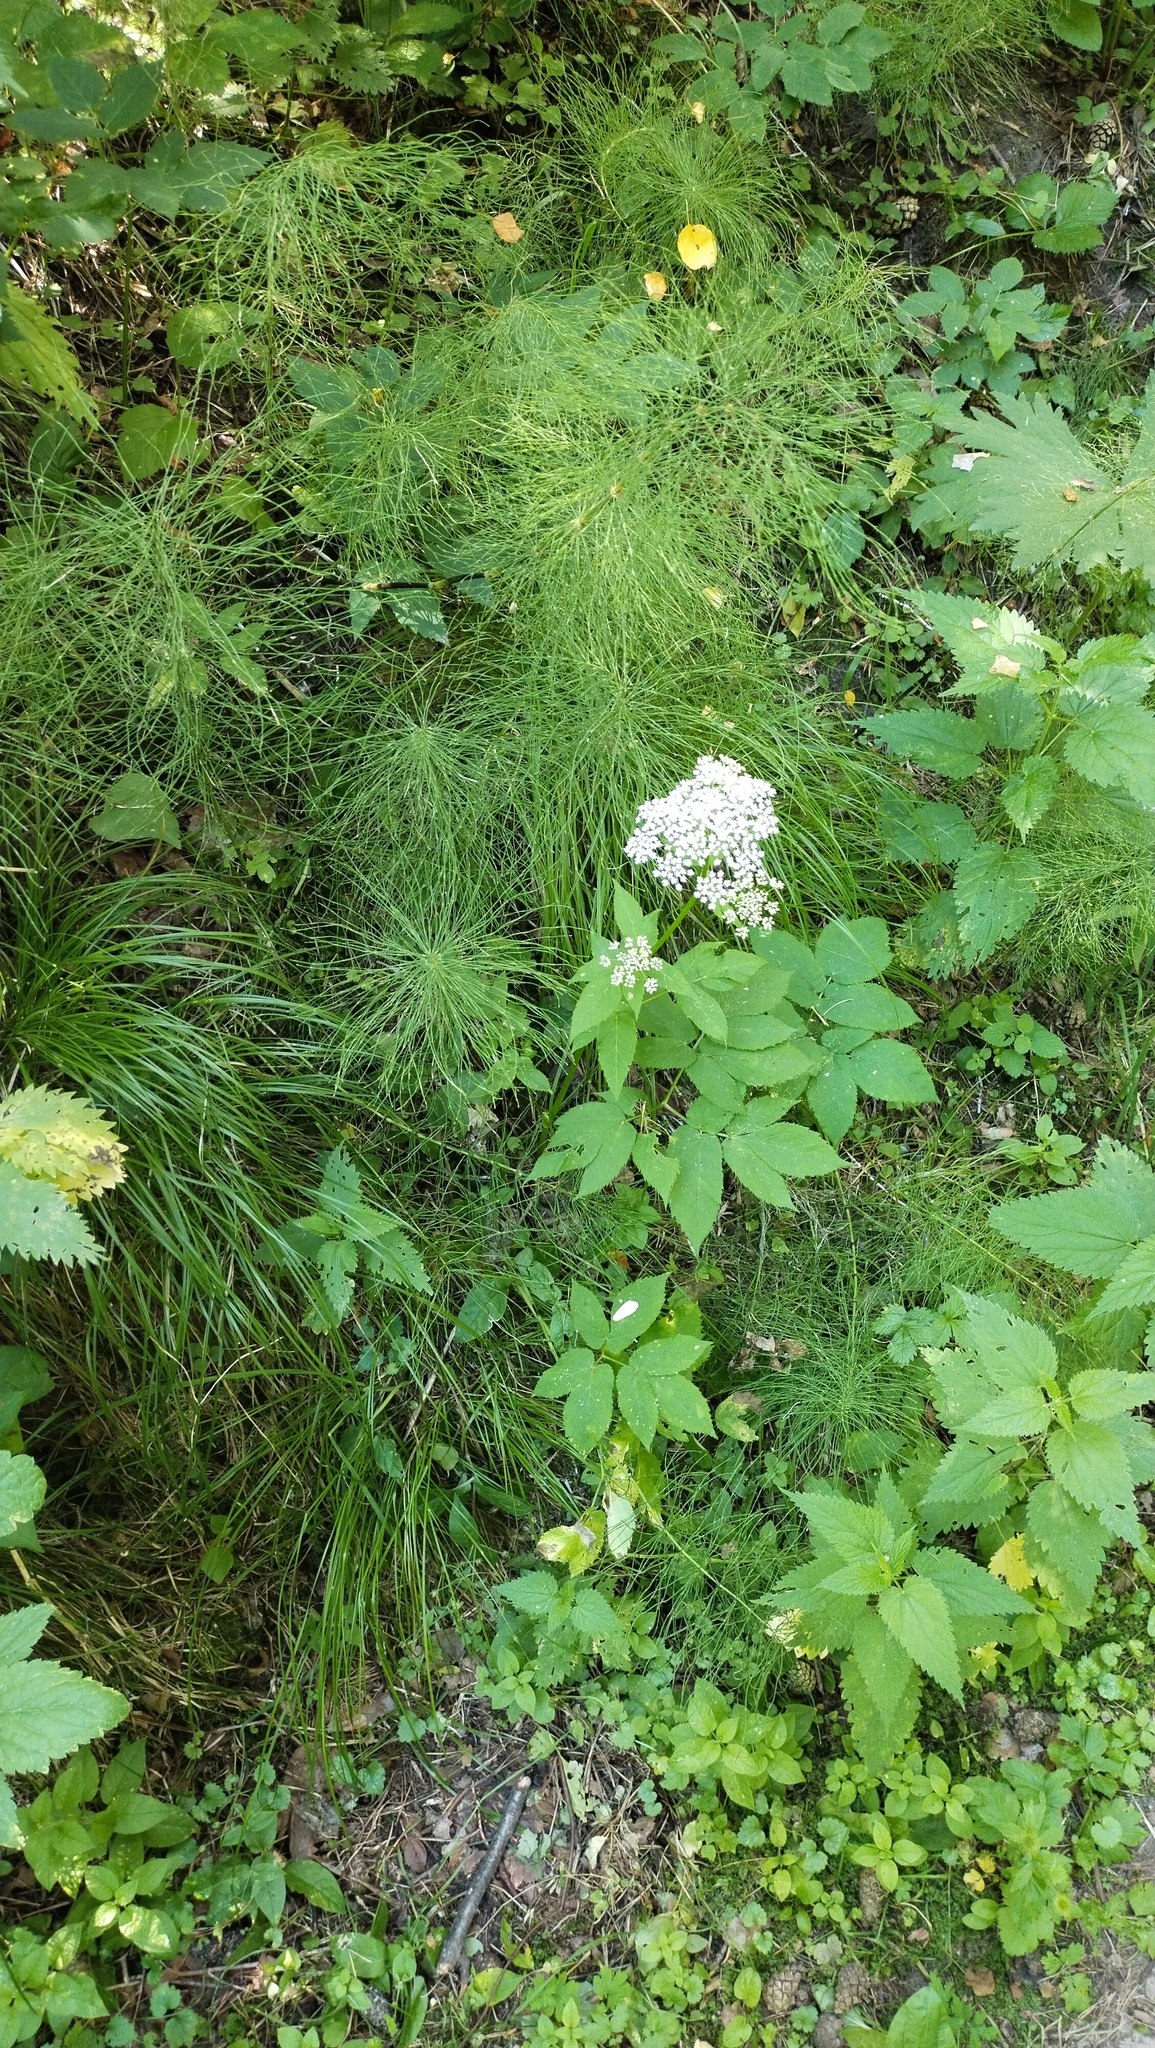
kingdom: Plantae
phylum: Tracheophyta
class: Magnoliopsida
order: Apiales
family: Apiaceae
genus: Aegopodium
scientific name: Aegopodium podagraria
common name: Ground-elder
